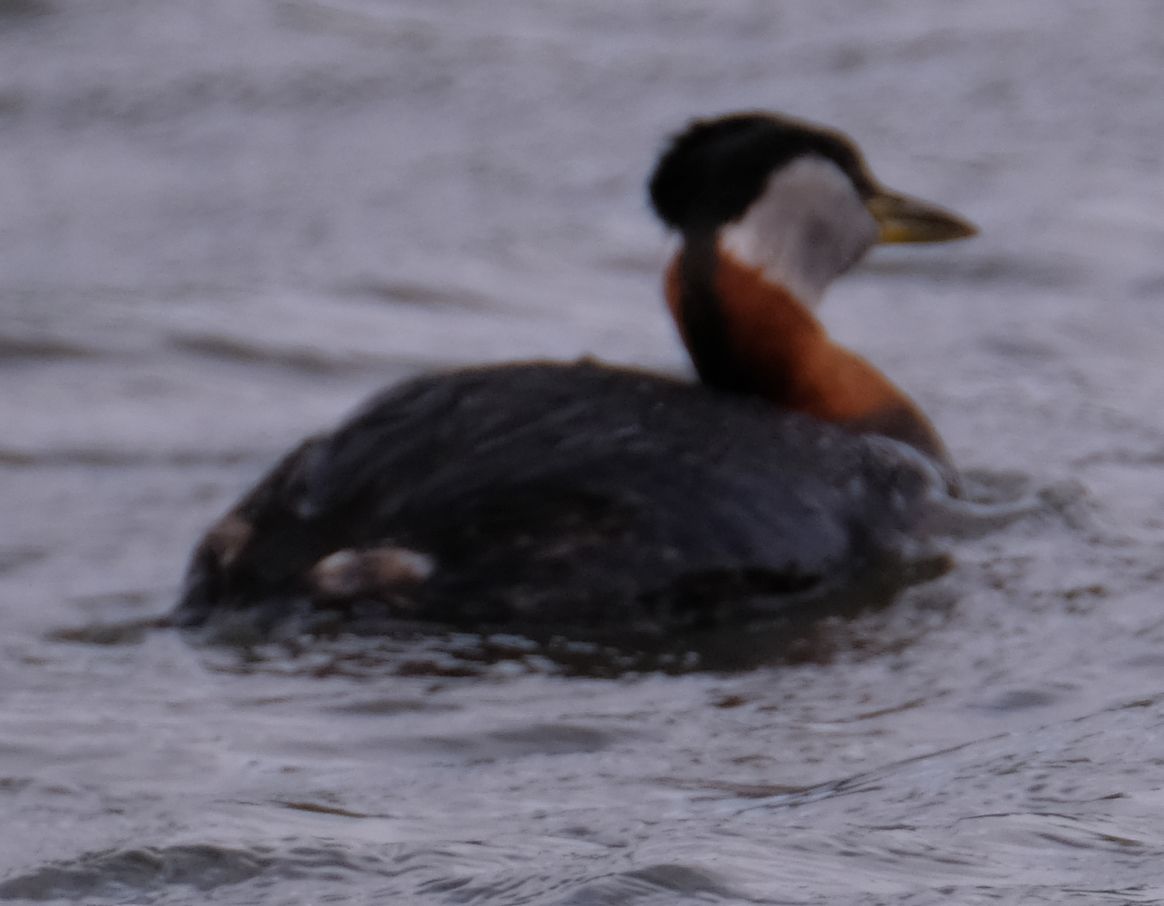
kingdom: Animalia
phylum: Chordata
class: Aves
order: Podicipediformes
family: Podicipedidae
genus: Podiceps
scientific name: Podiceps grisegena
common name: Red-necked grebe
